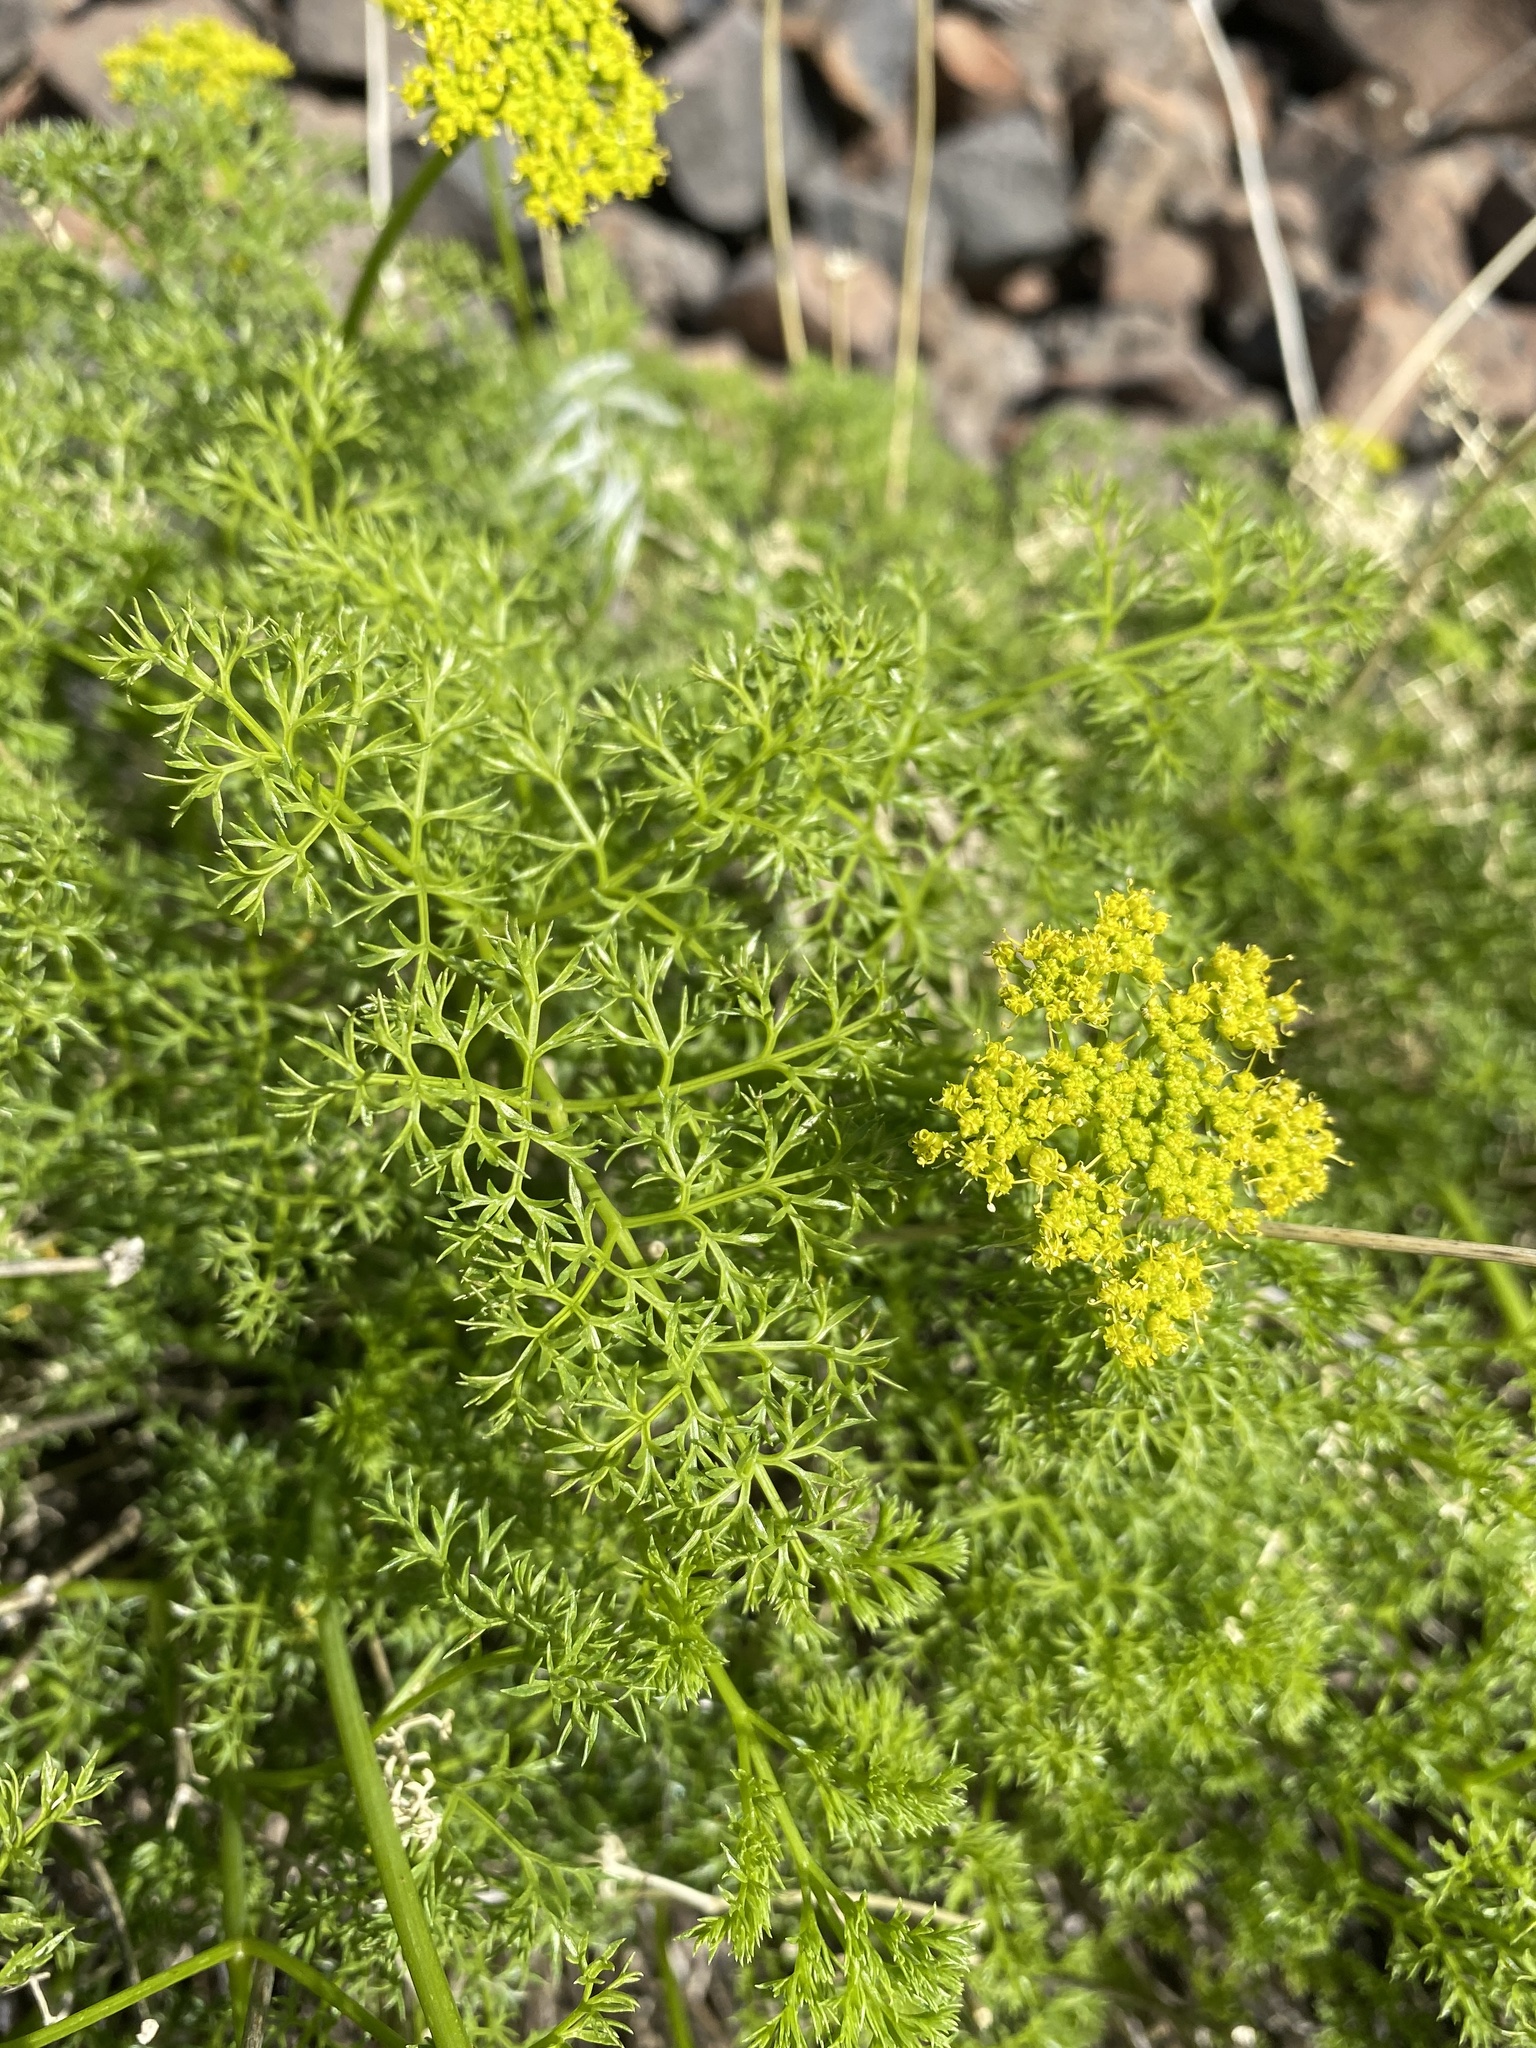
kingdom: Plantae
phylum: Tracheophyta
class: Magnoliopsida
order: Apiales
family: Apiaceae
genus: Pteryxia
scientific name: Pteryxia terebinthina
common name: Turpentine wavewing
